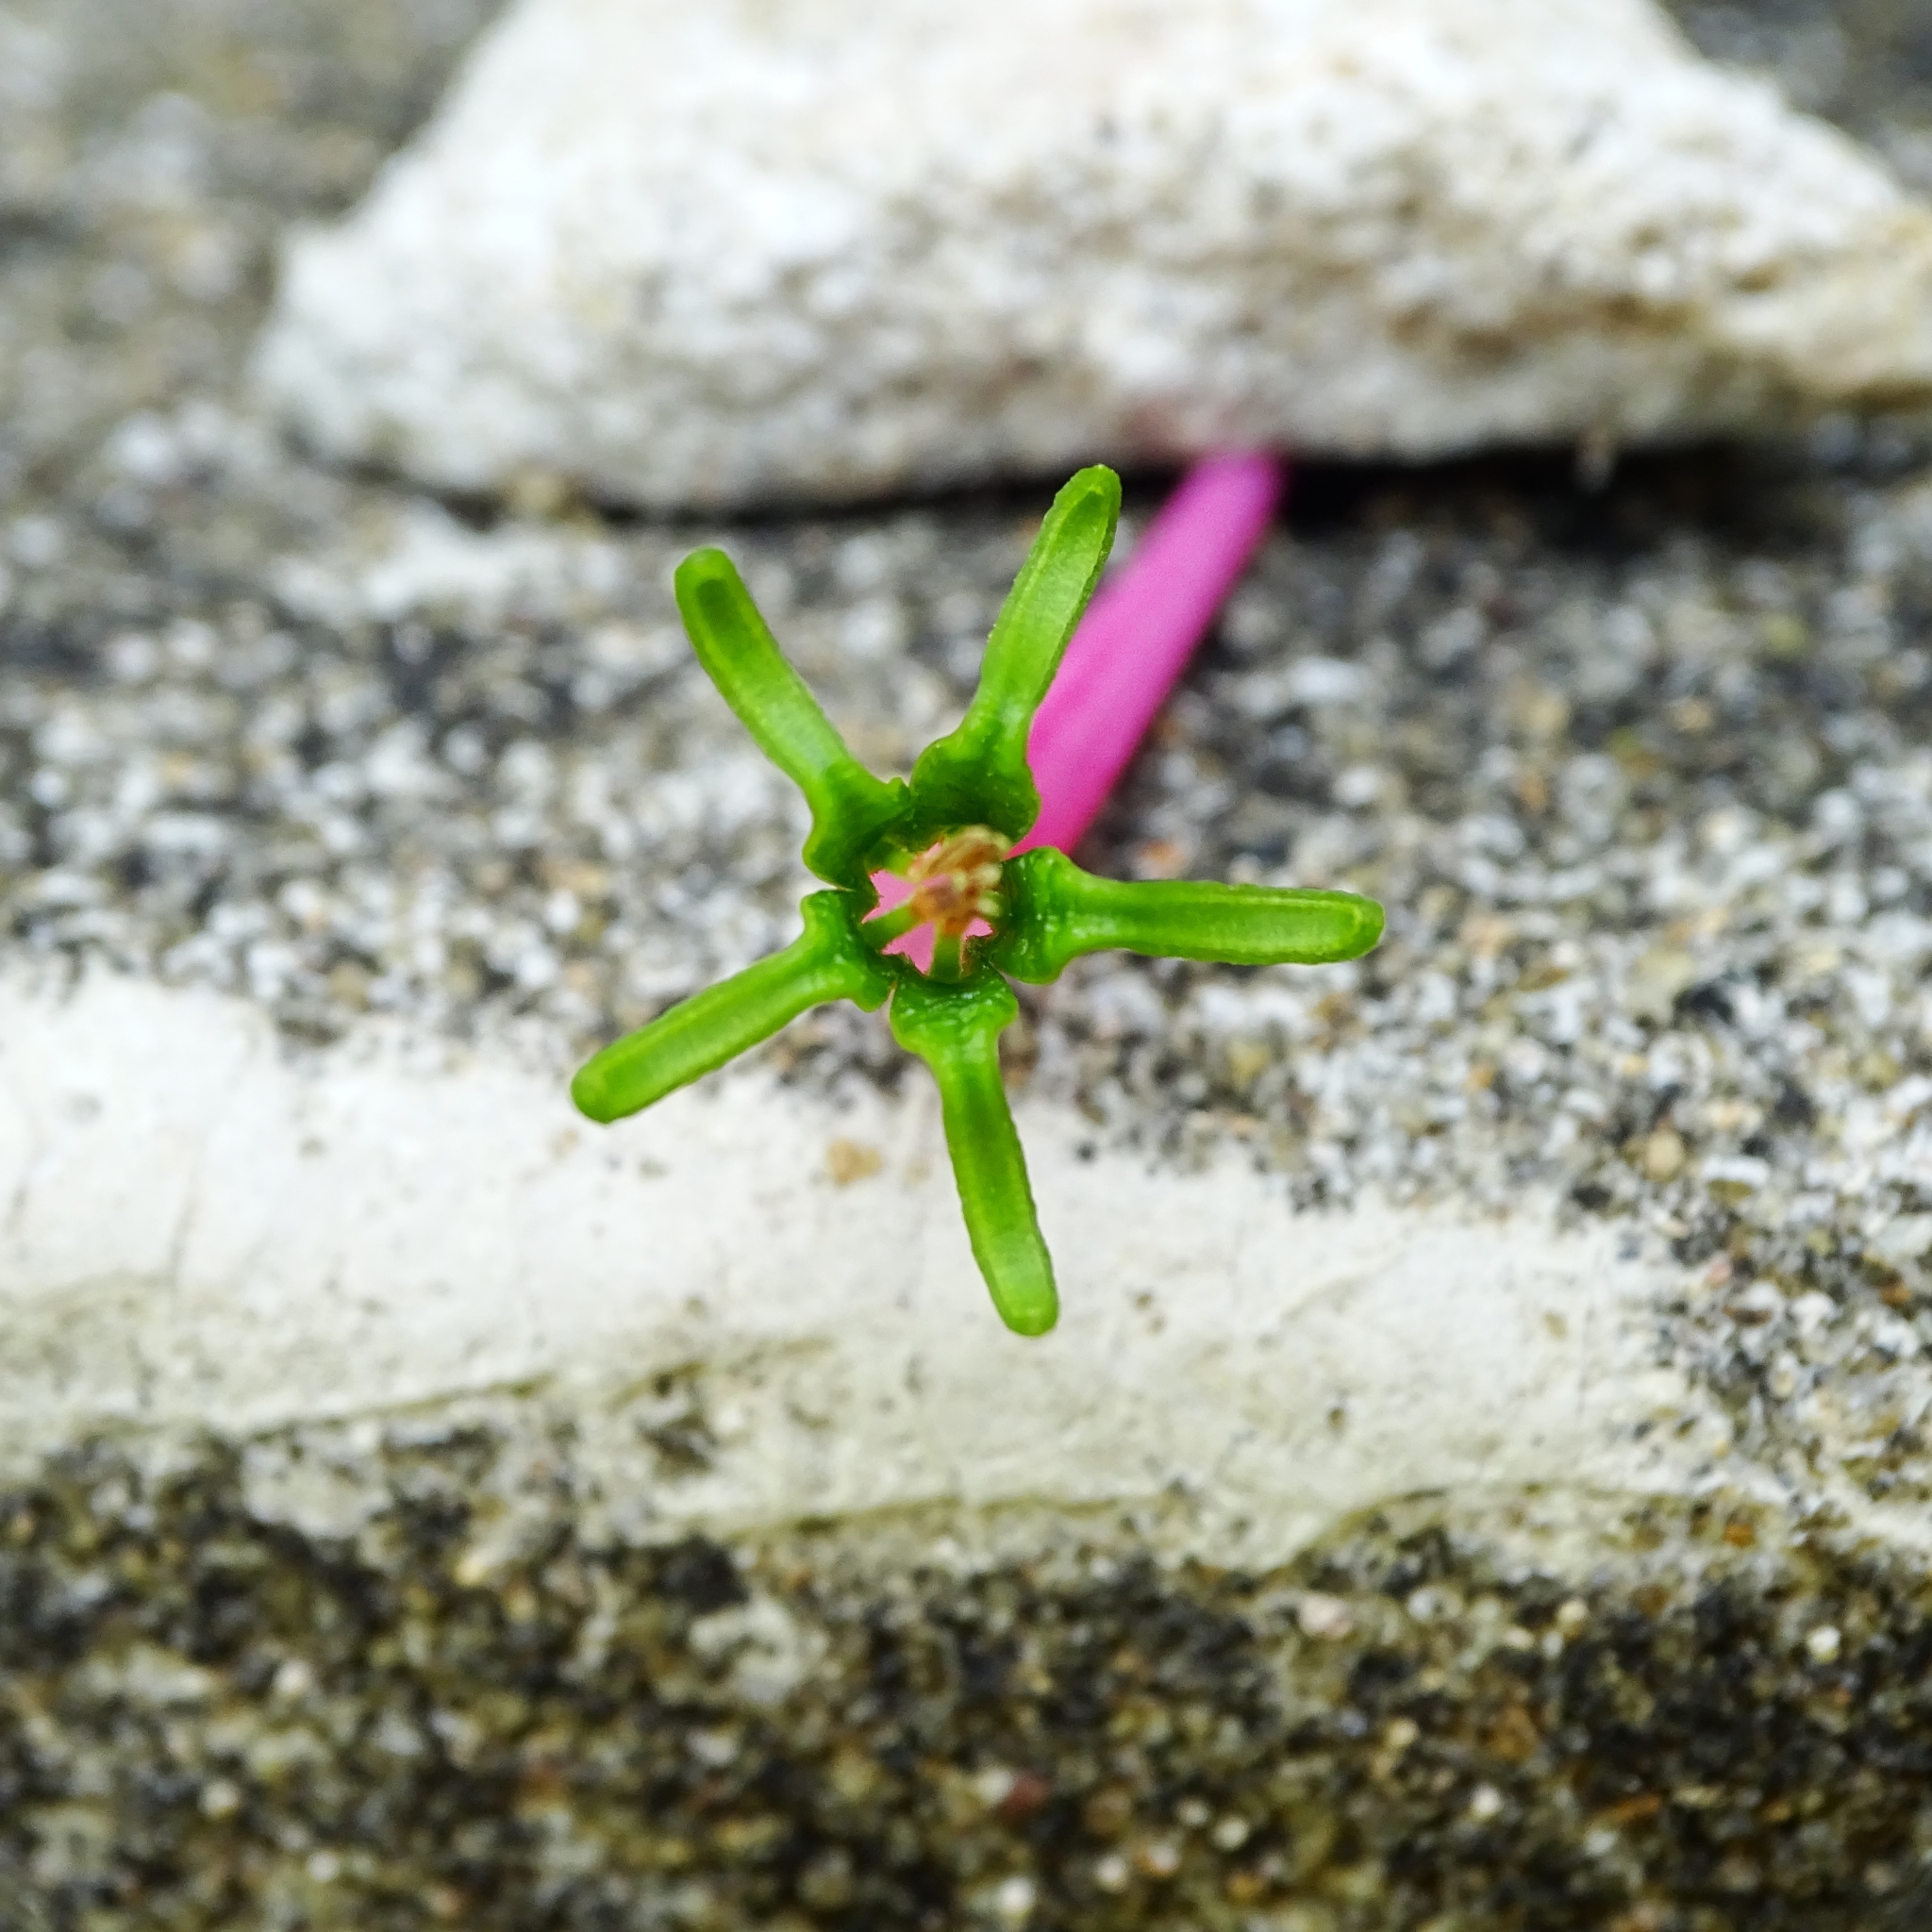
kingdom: Plantae
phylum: Tracheophyta
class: Magnoliopsida
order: Santalales
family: Loranthaceae
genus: Dendrophthoe
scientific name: Dendrophthoe falcata
